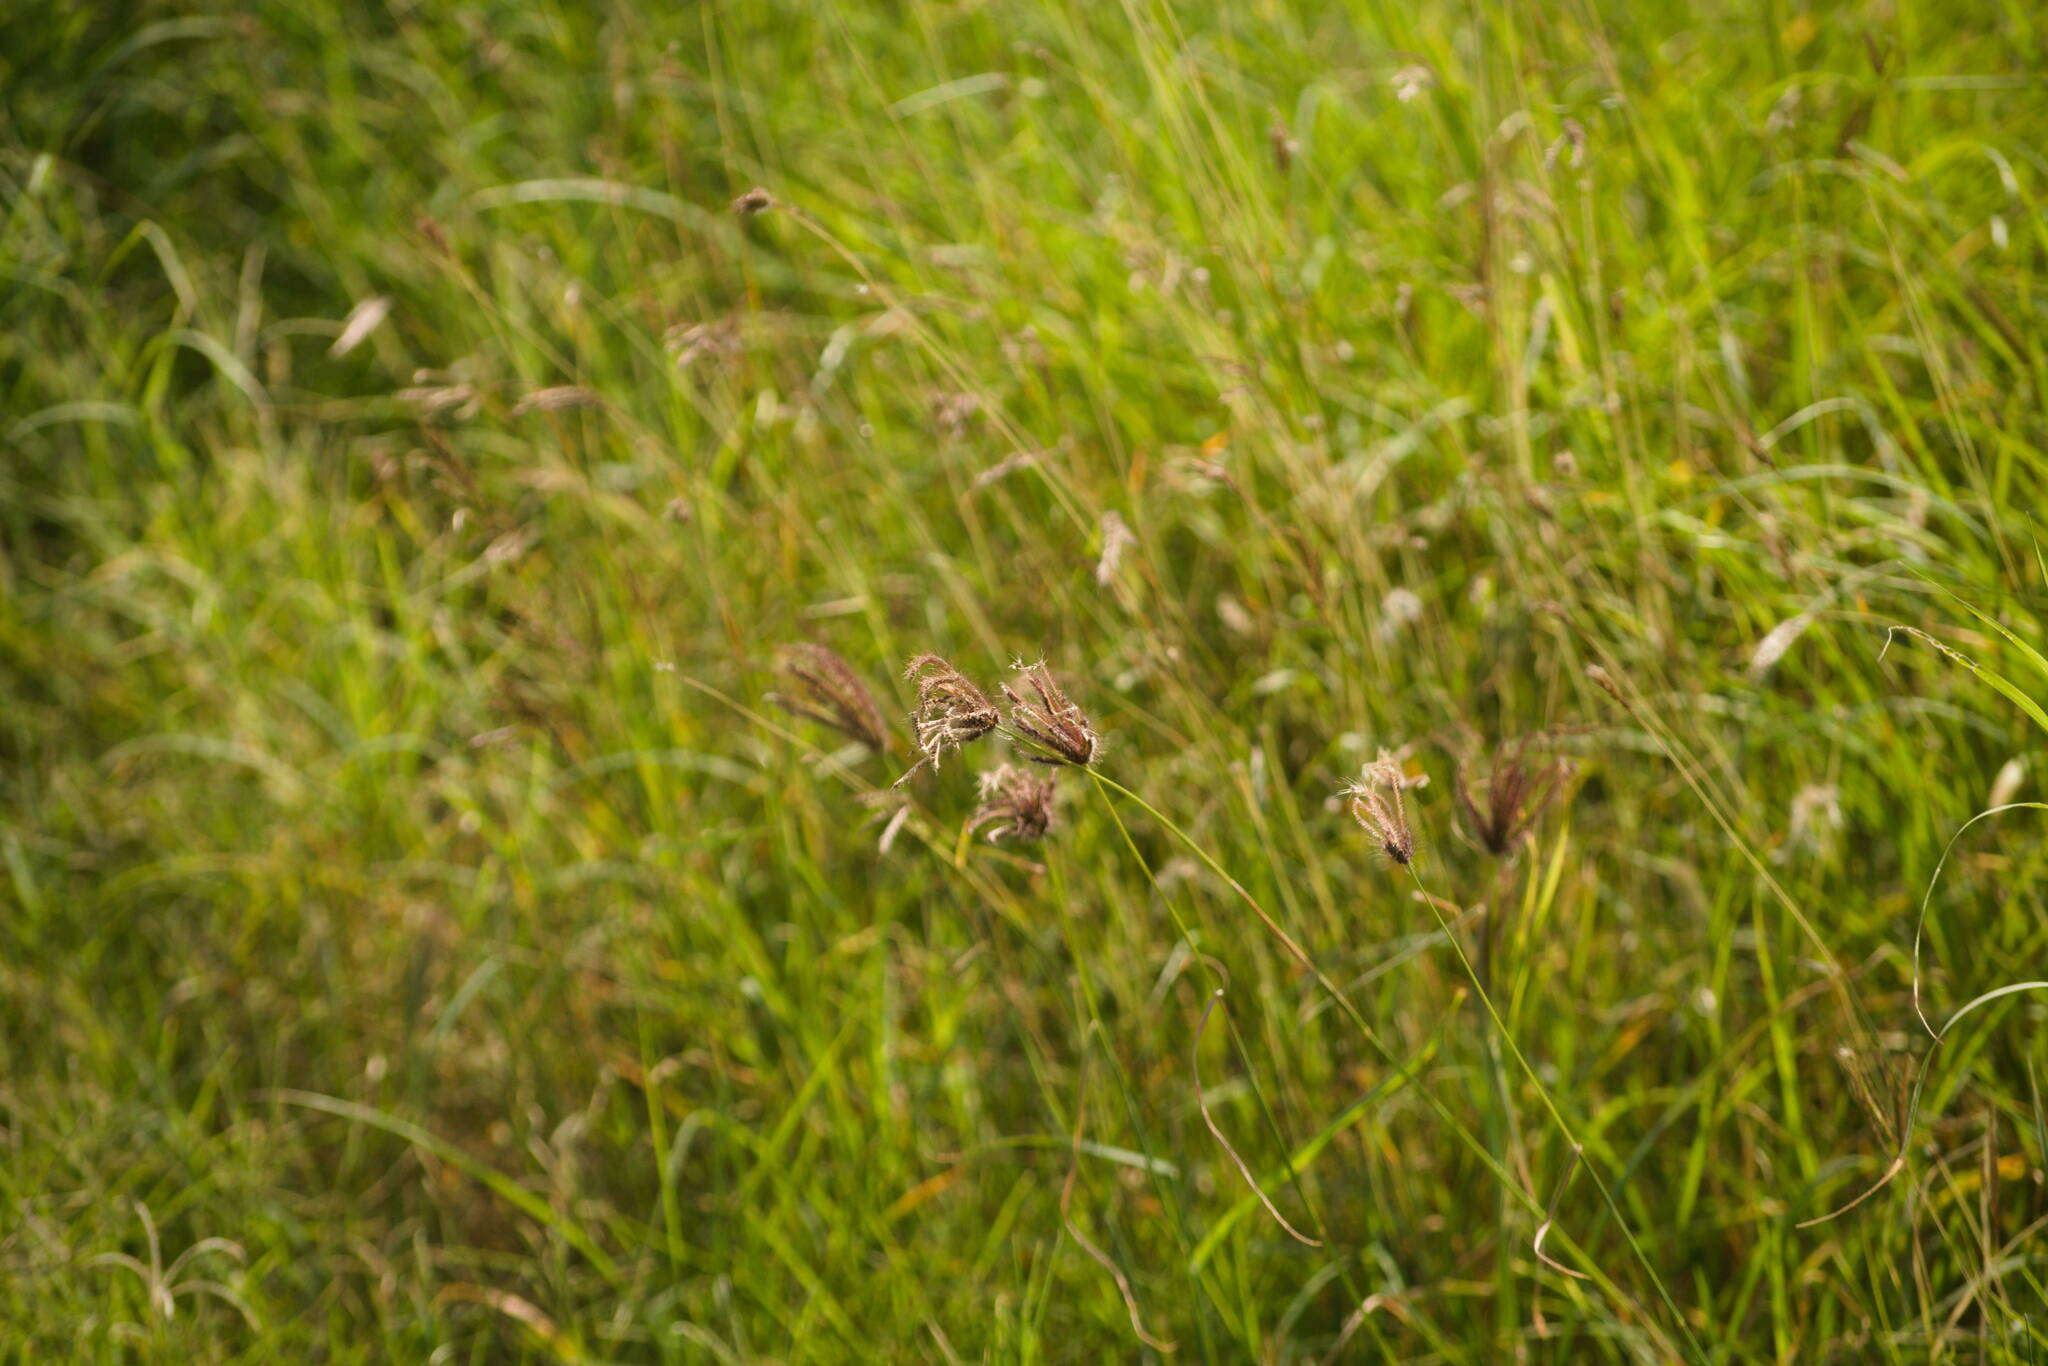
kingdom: Plantae
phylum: Tracheophyta
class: Liliopsida
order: Poales
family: Poaceae
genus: Chloris
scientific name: Chloris barbata
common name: Swollen fingergrass
